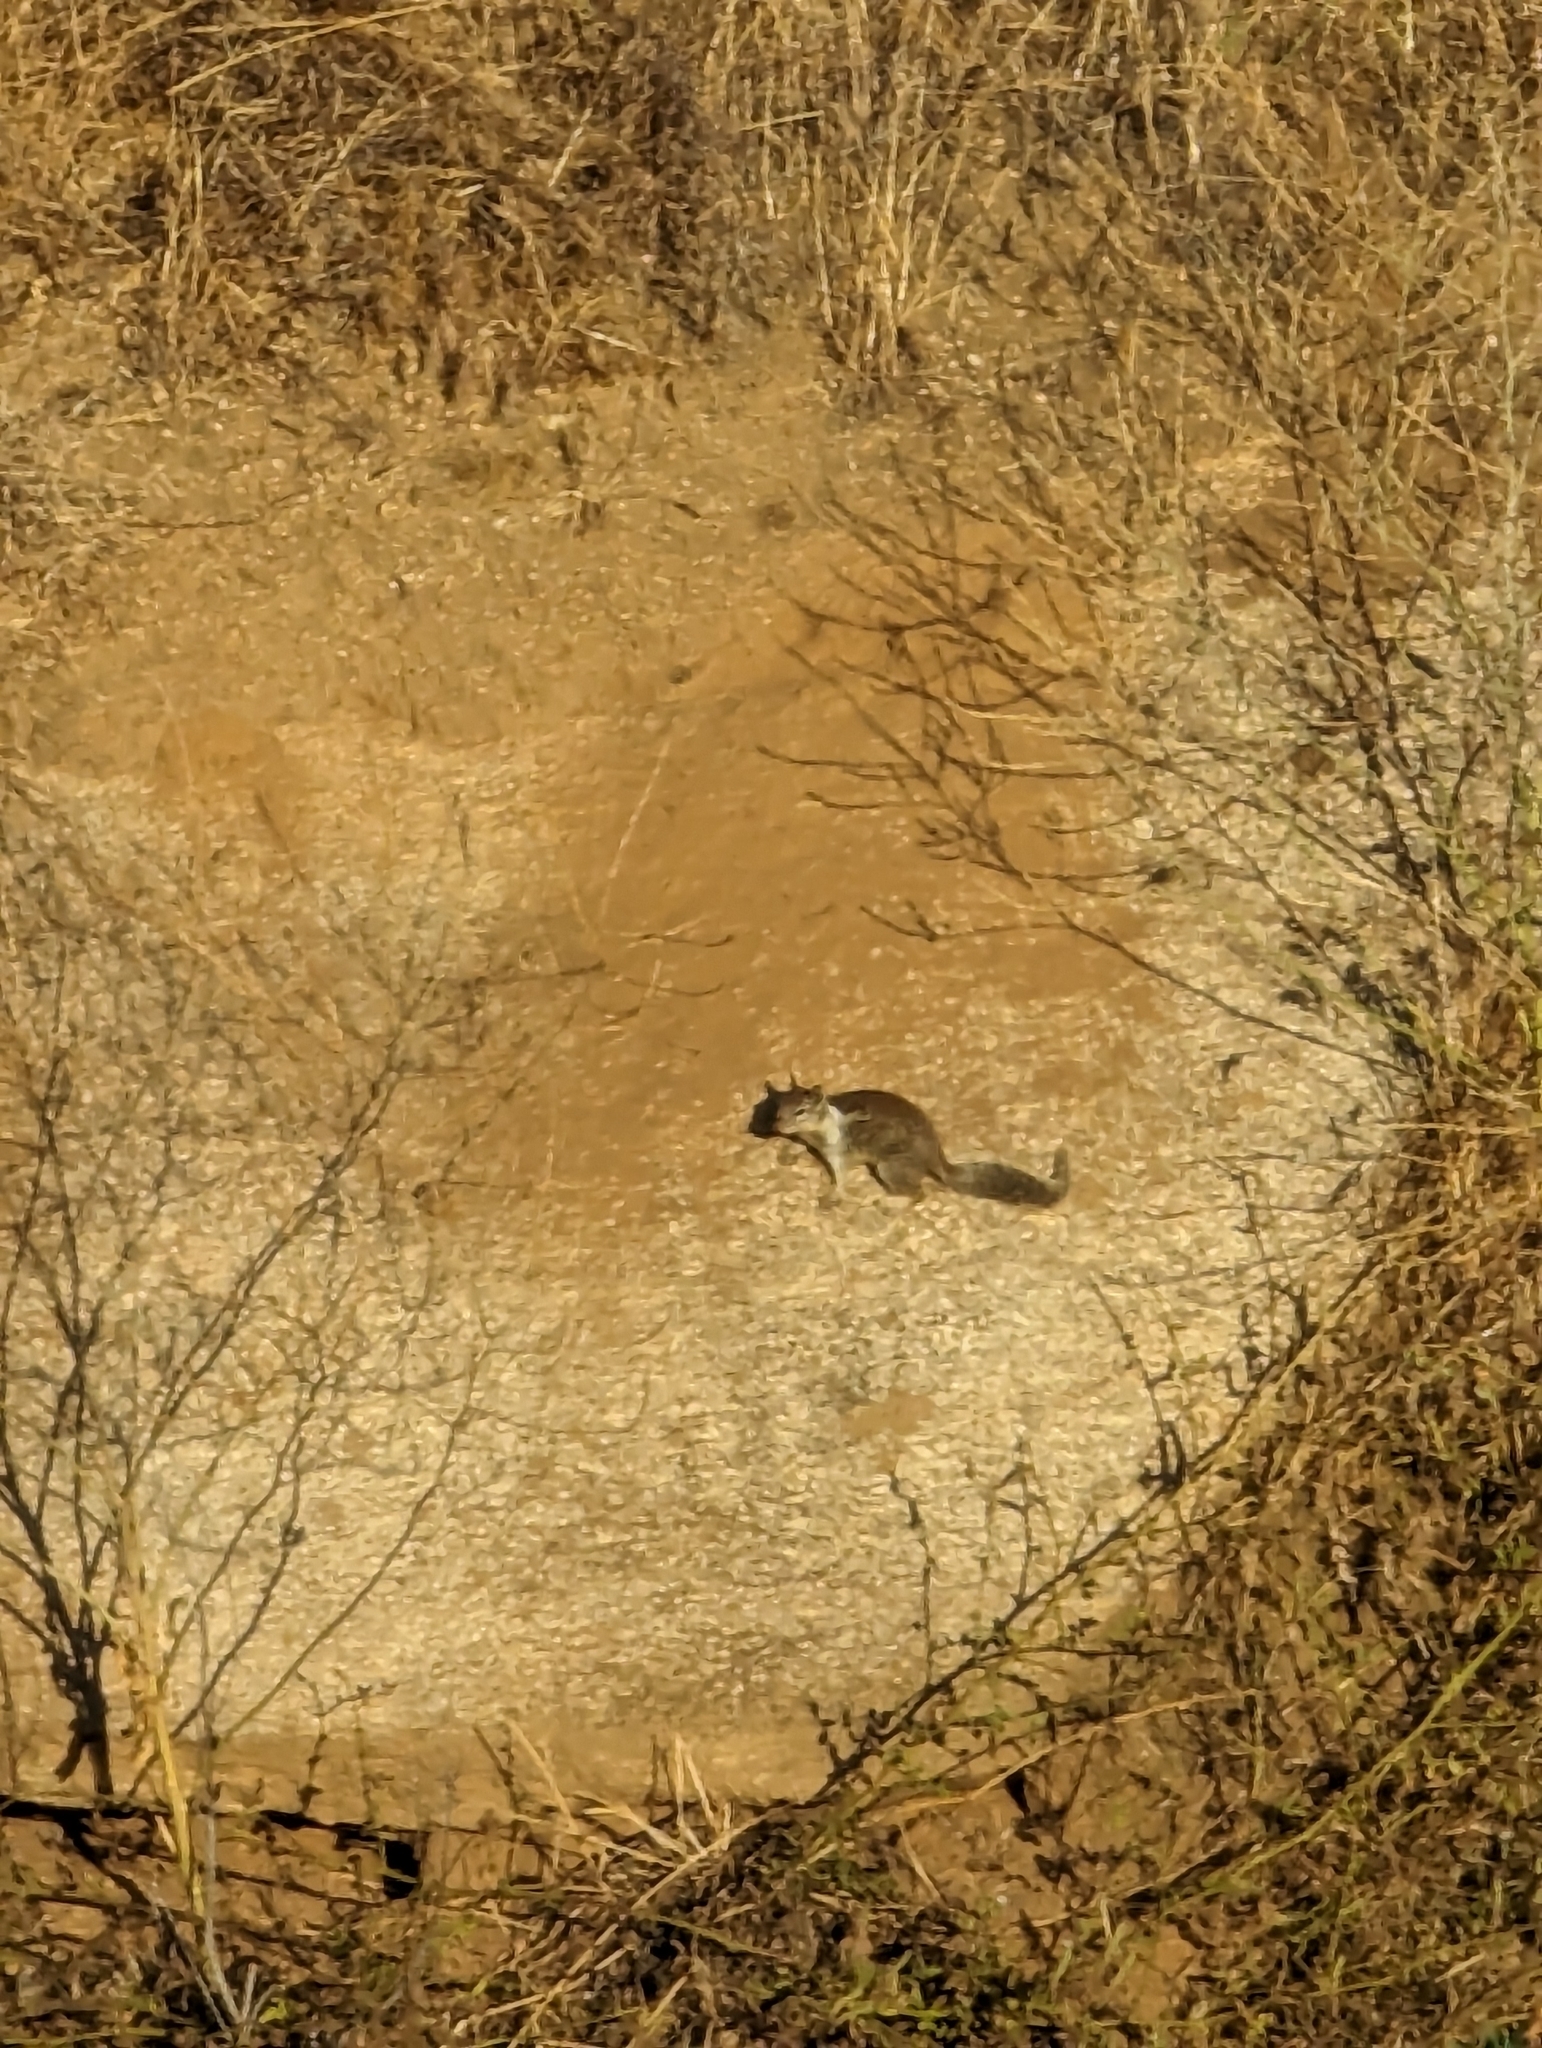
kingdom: Animalia
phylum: Chordata
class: Mammalia
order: Rodentia
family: Sciuridae
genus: Otospermophilus
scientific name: Otospermophilus beecheyi
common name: California ground squirrel
